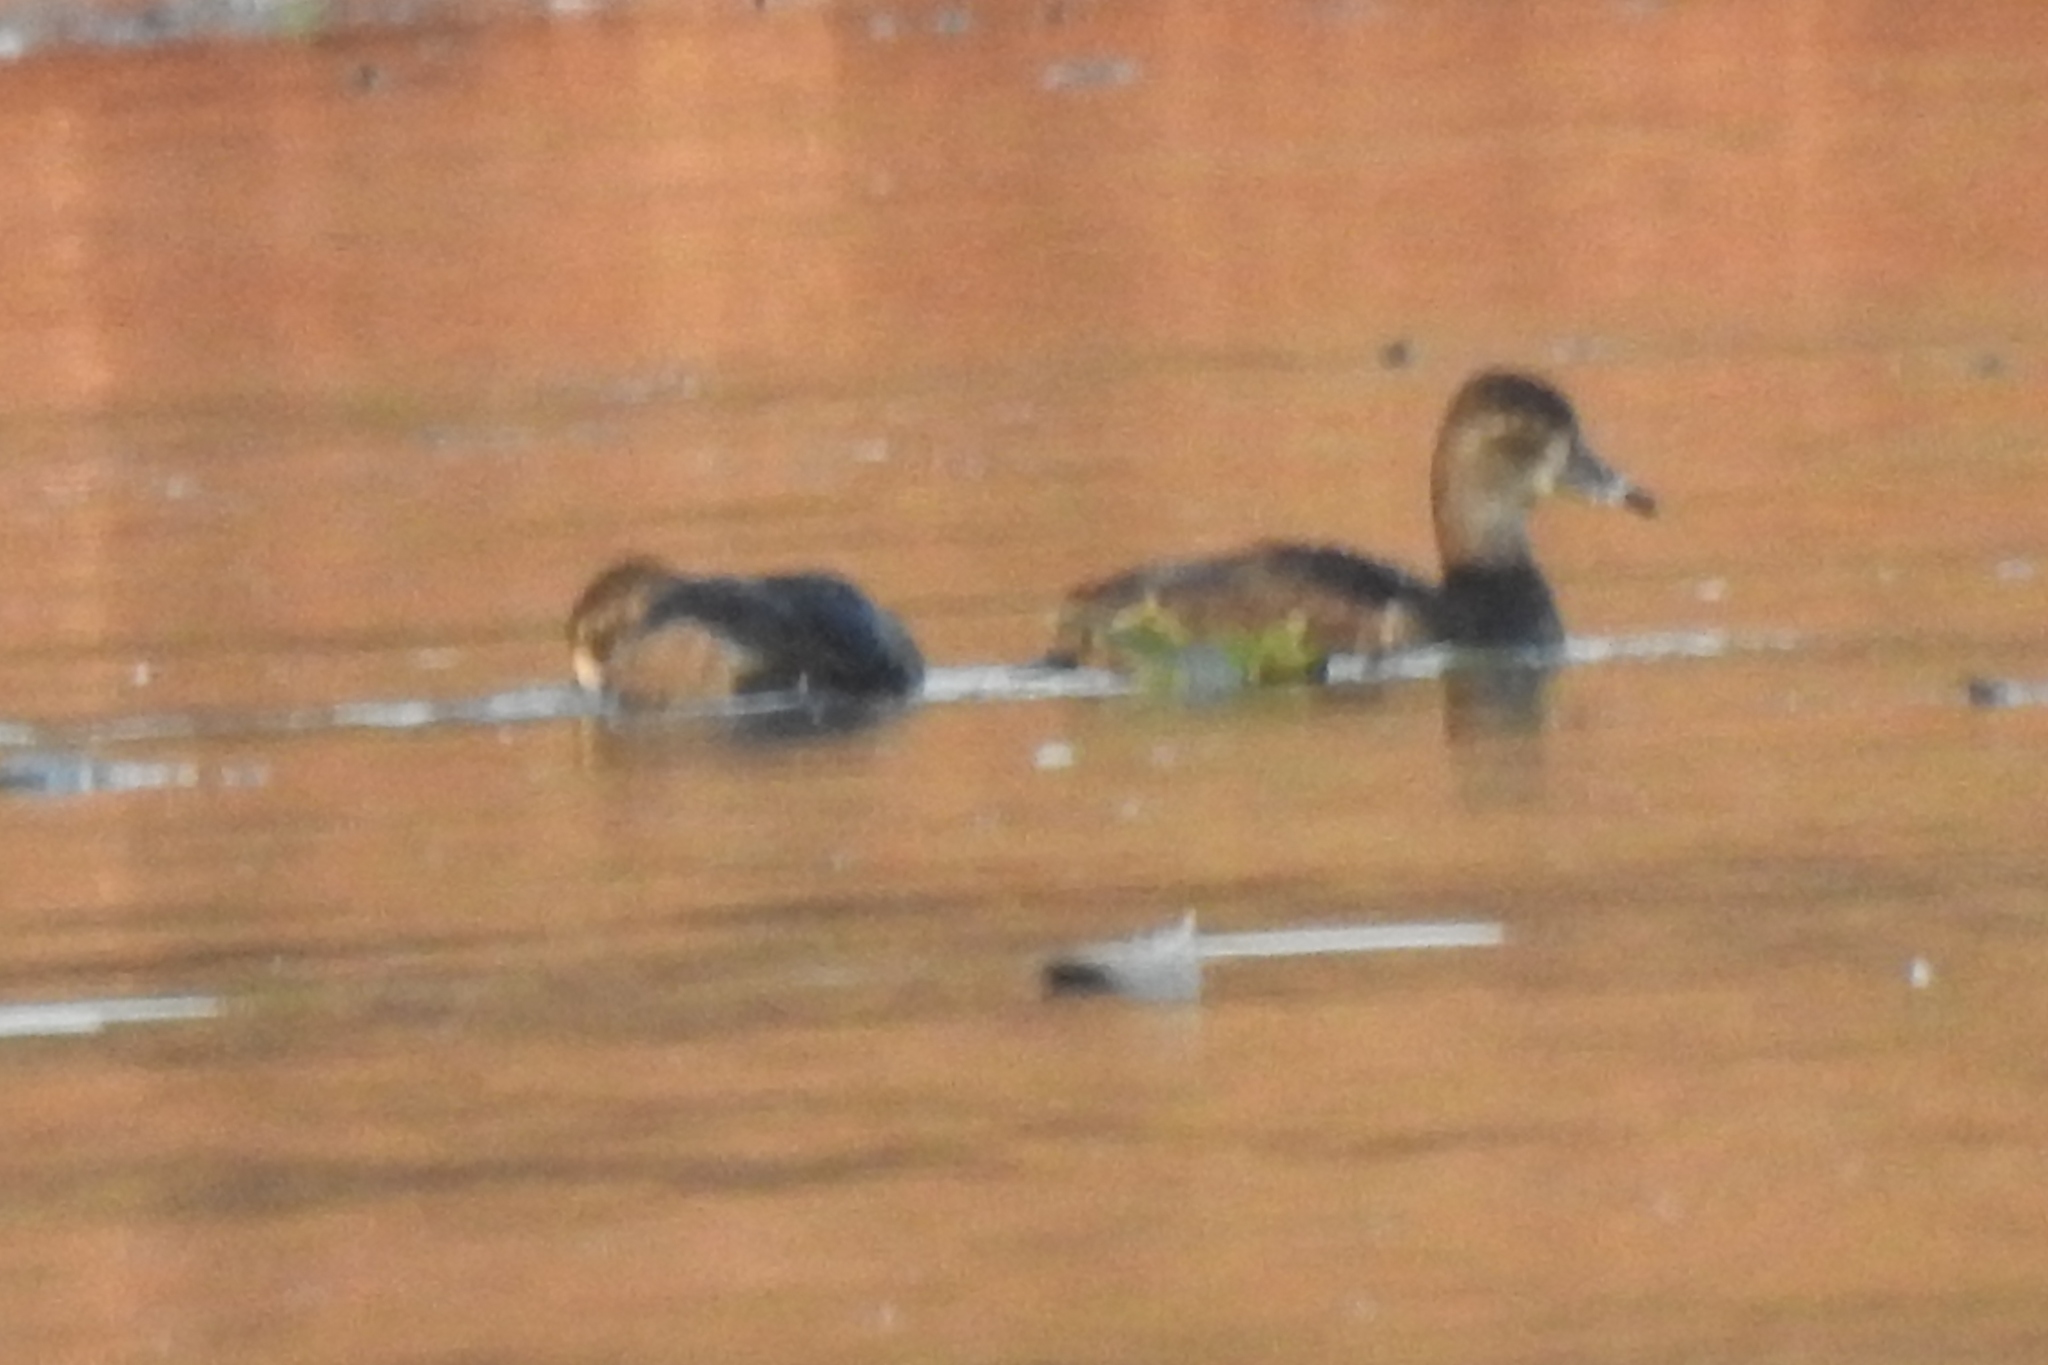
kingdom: Animalia
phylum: Chordata
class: Aves
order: Anseriformes
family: Anatidae
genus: Aythya
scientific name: Aythya collaris
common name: Ring-necked duck
